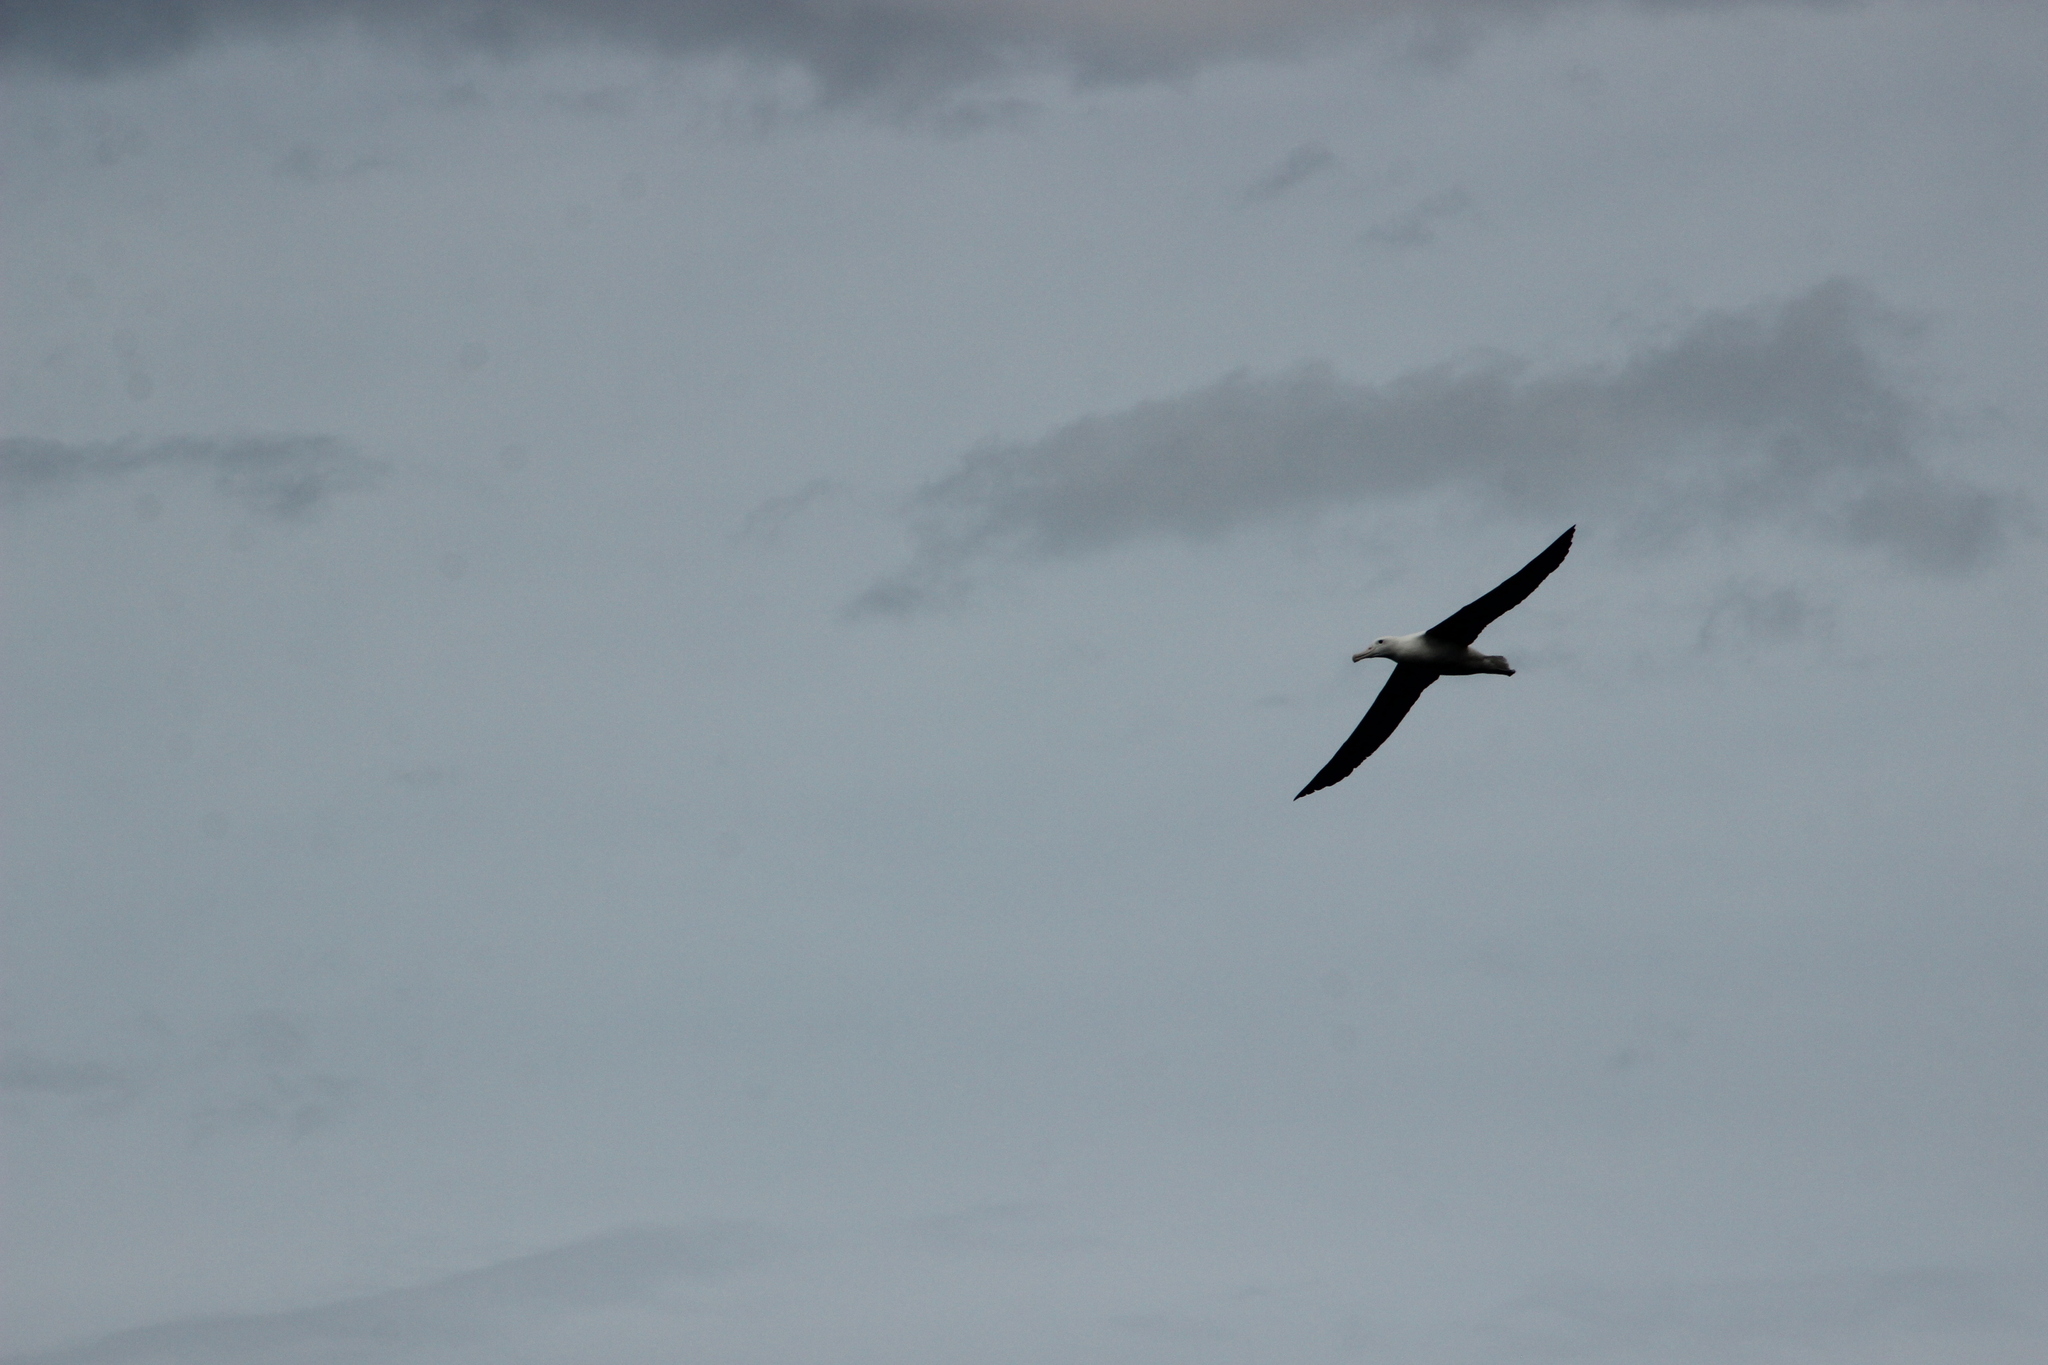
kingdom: Animalia
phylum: Chordata
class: Aves
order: Procellariiformes
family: Diomedeidae
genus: Diomedea
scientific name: Diomedea sanfordi
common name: Northern royal albatross
